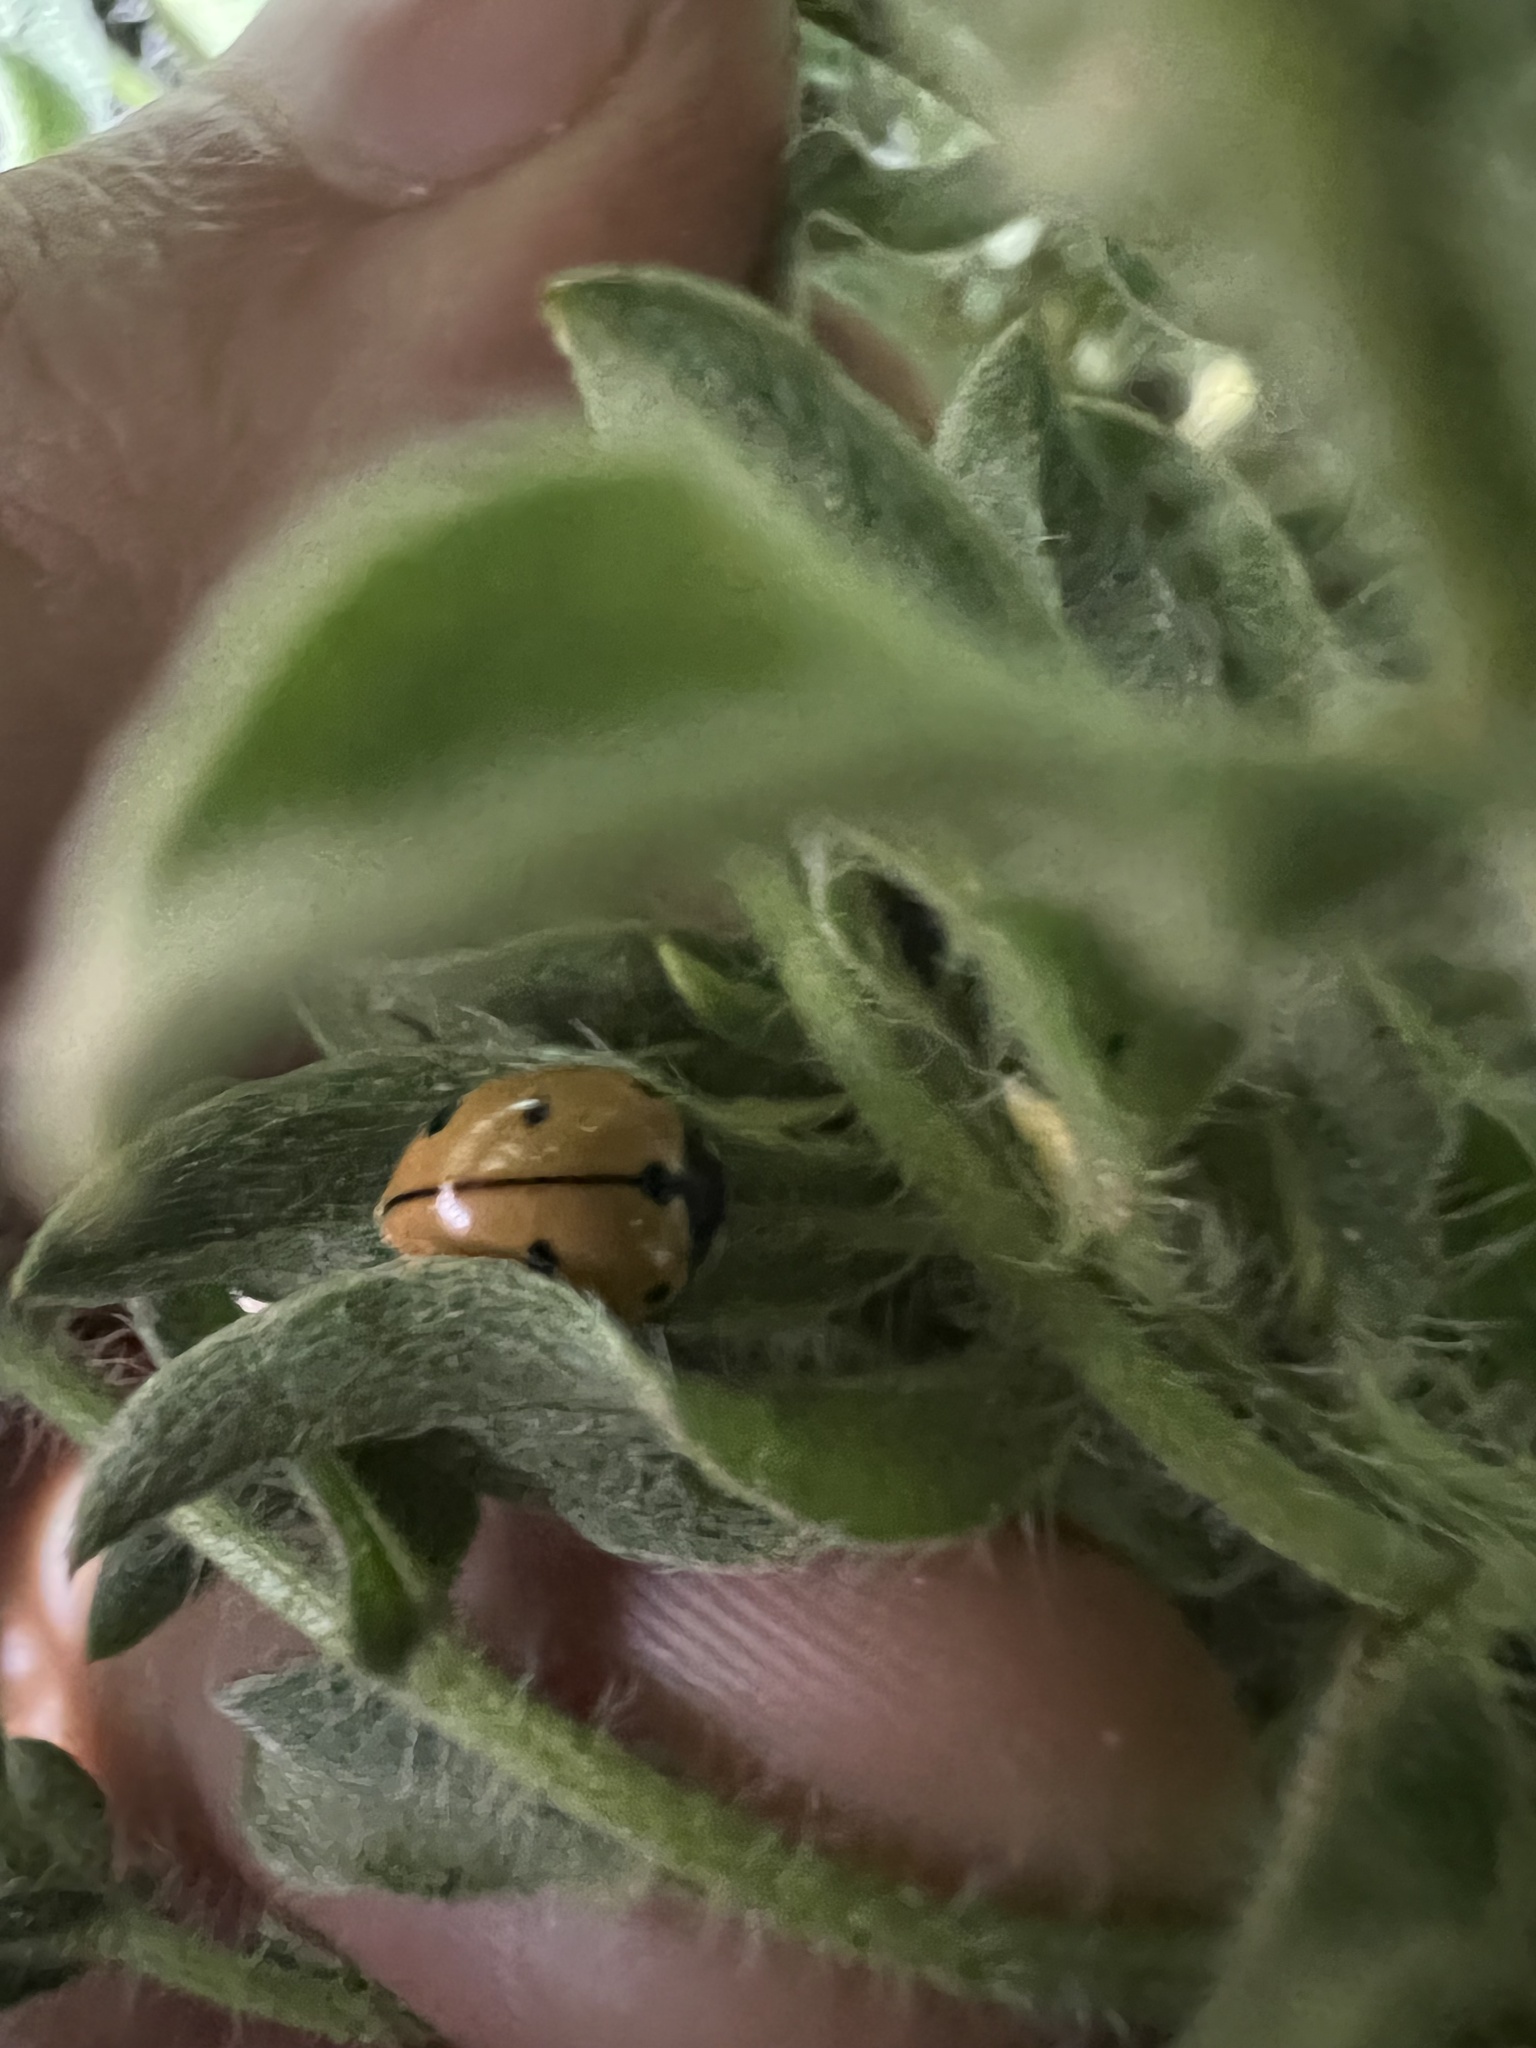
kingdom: Animalia
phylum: Arthropoda
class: Insecta
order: Coleoptera
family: Coccinellidae
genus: Coccinella
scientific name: Coccinella novemnotata
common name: Nine-spotted lady beetle
